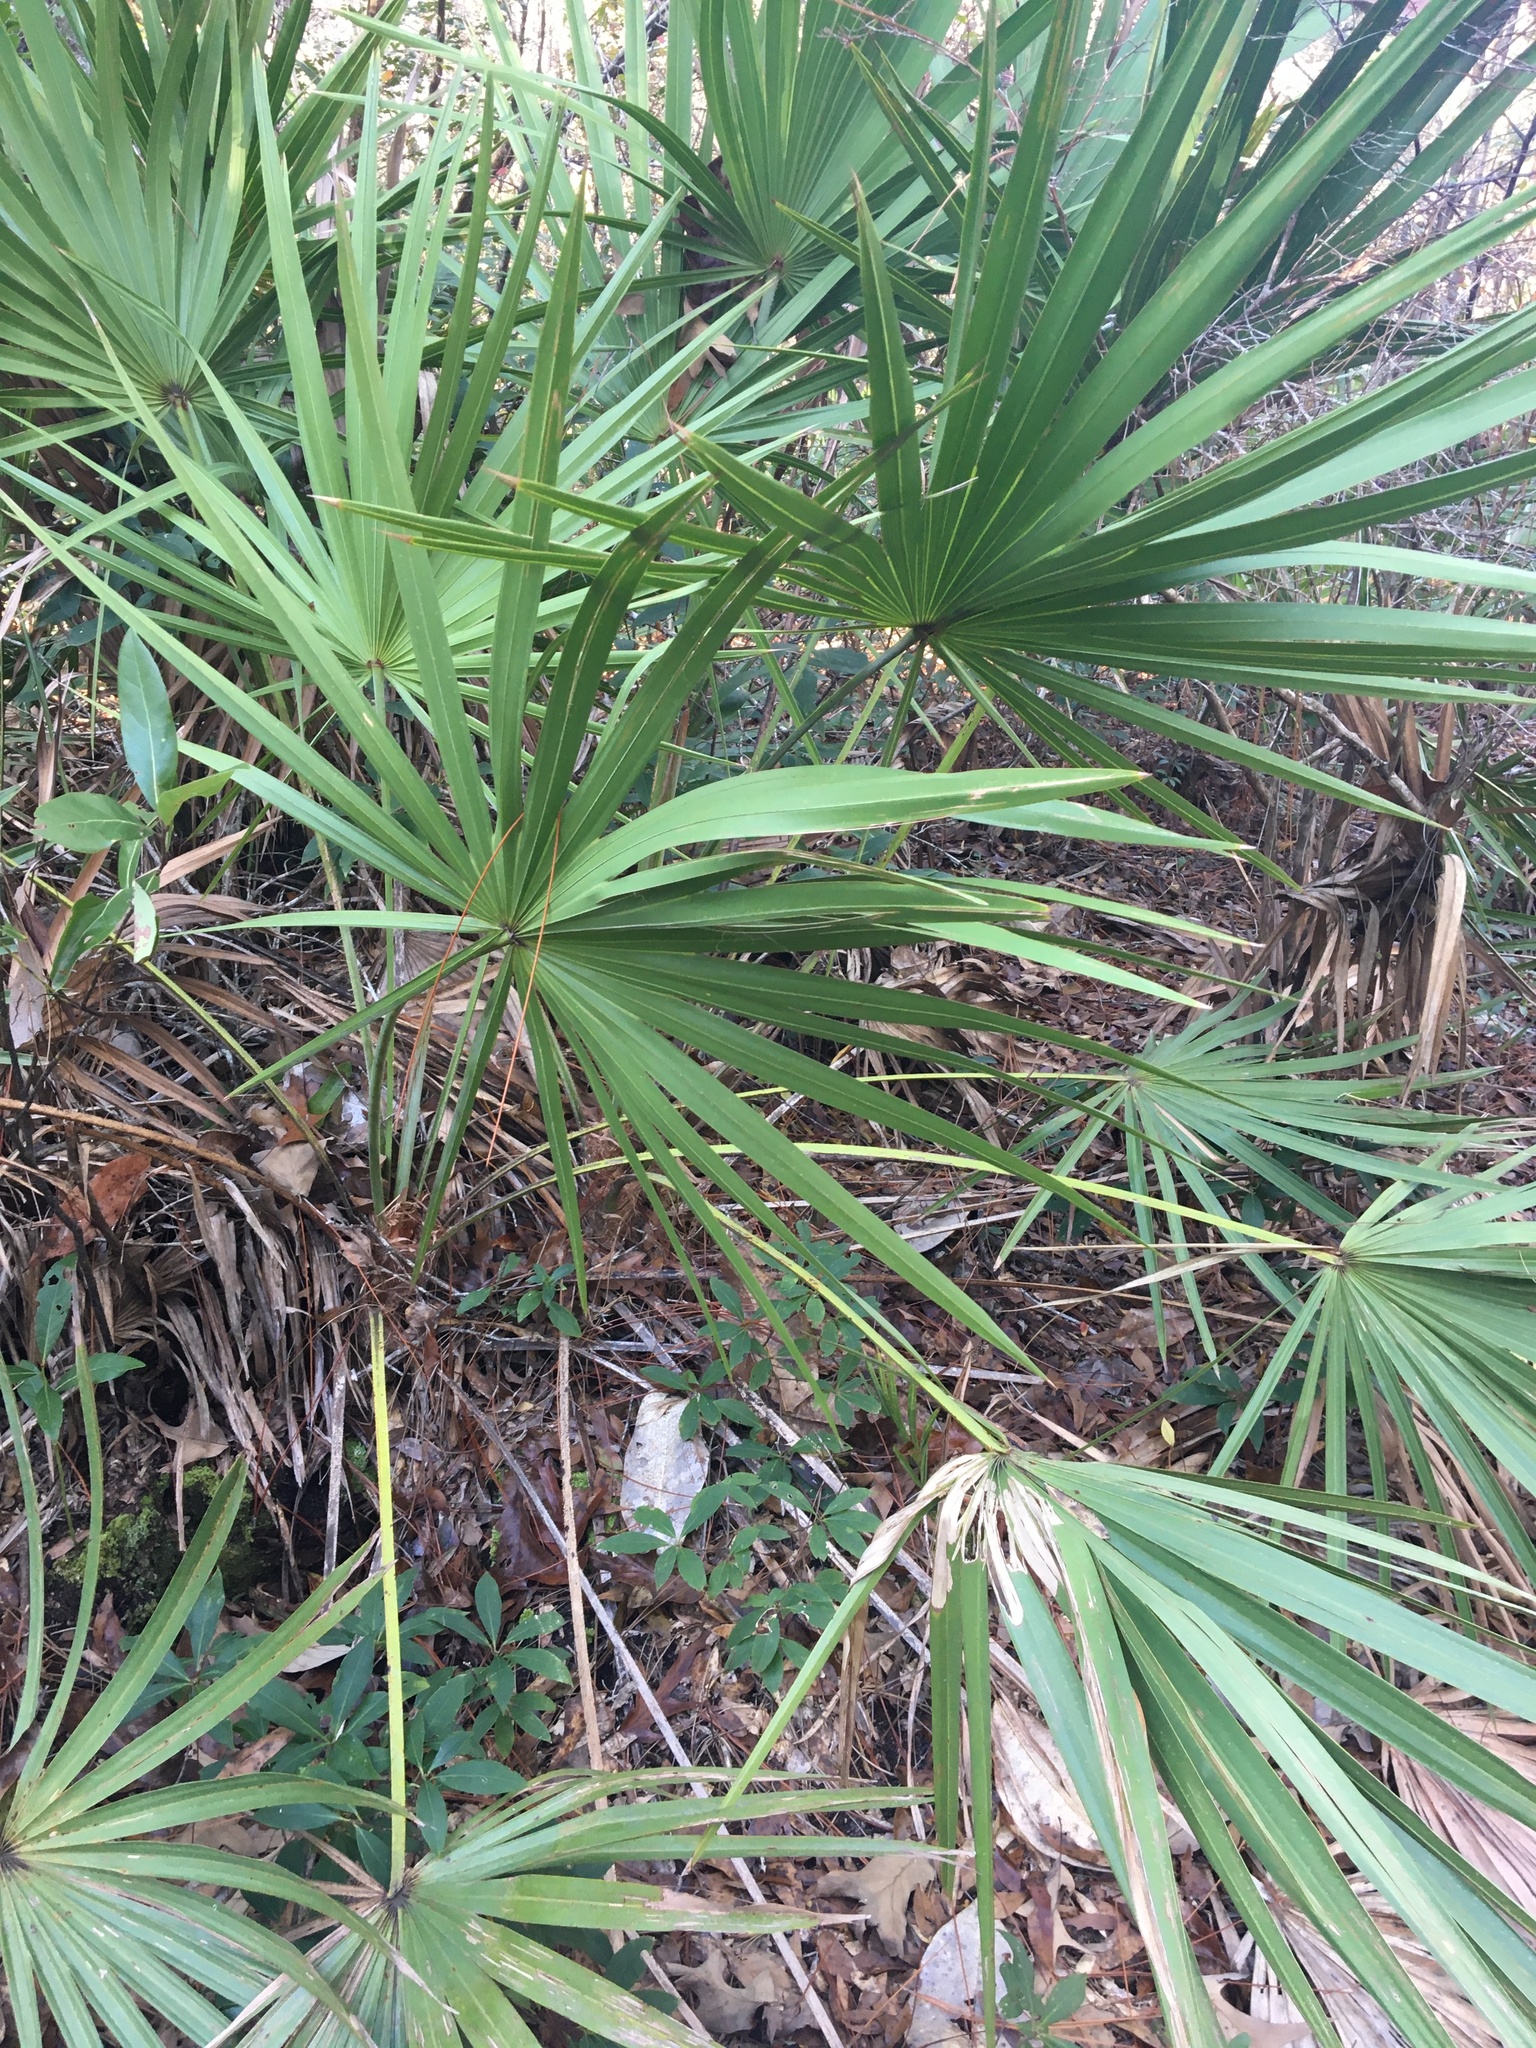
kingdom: Plantae
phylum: Tracheophyta
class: Liliopsida
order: Arecales
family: Arecaceae
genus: Serenoa
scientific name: Serenoa repens
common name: Saw-palmetto
